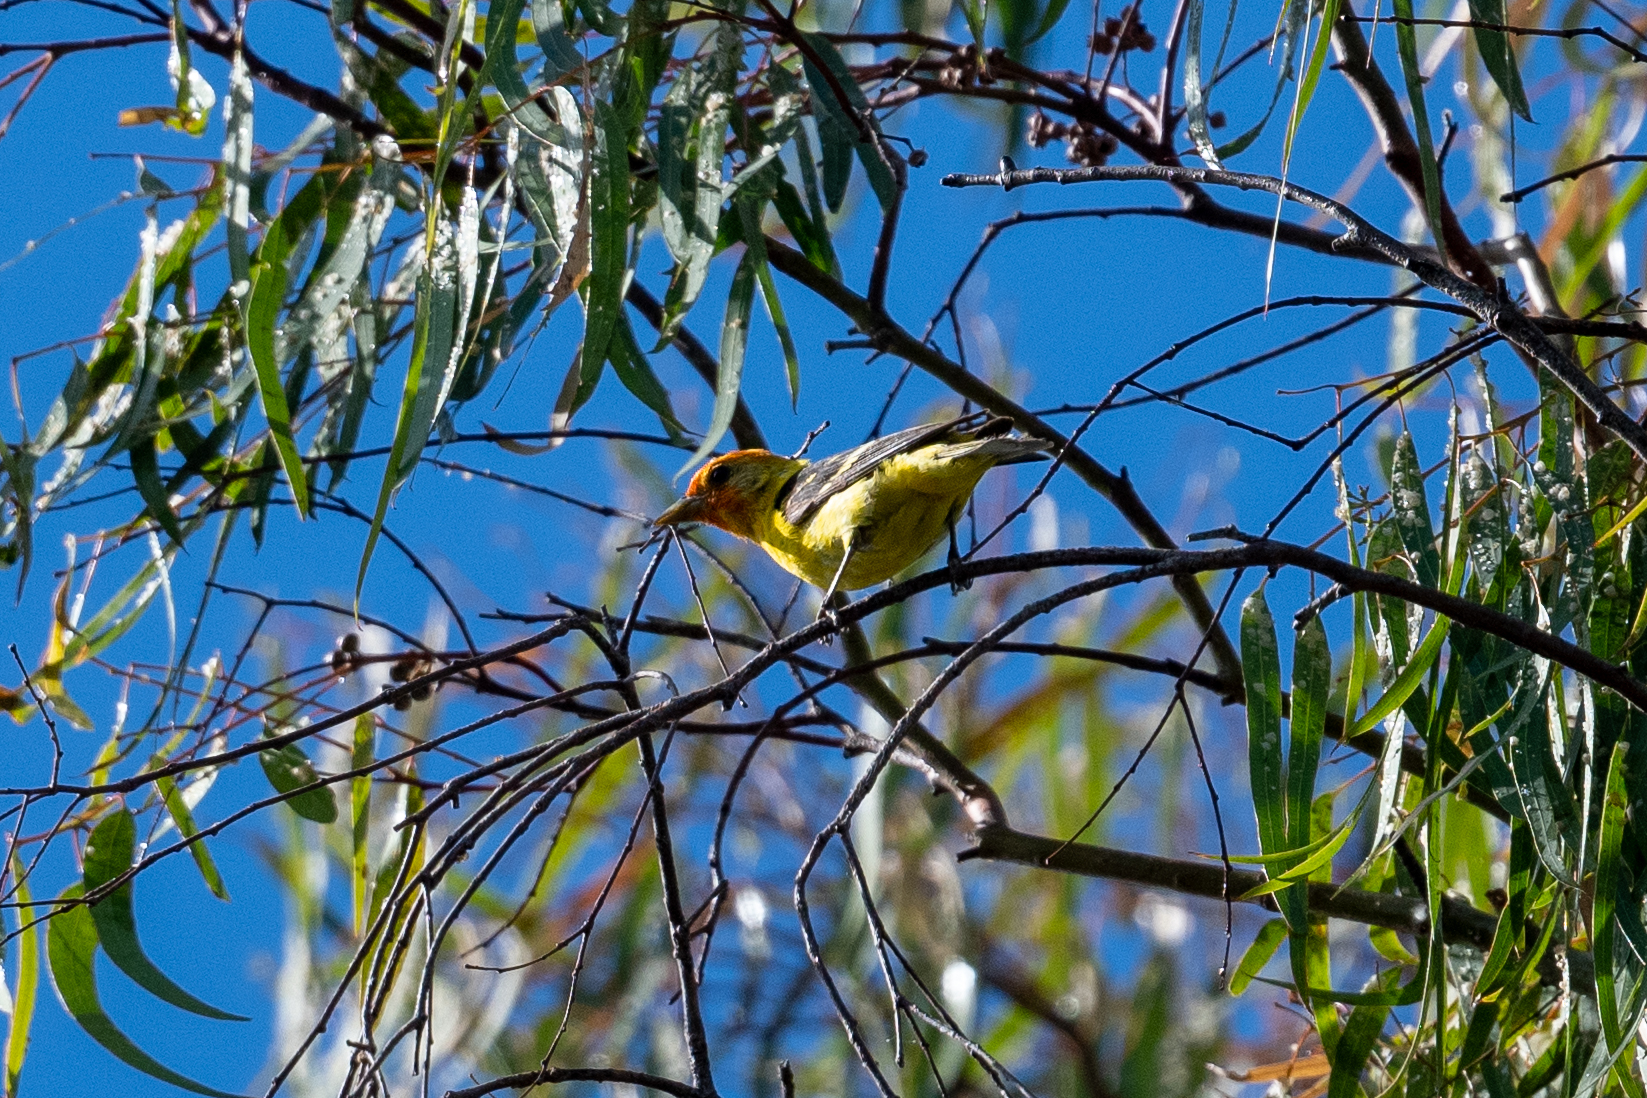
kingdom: Animalia
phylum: Chordata
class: Aves
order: Passeriformes
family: Cardinalidae
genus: Piranga
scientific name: Piranga ludoviciana
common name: Western tanager
